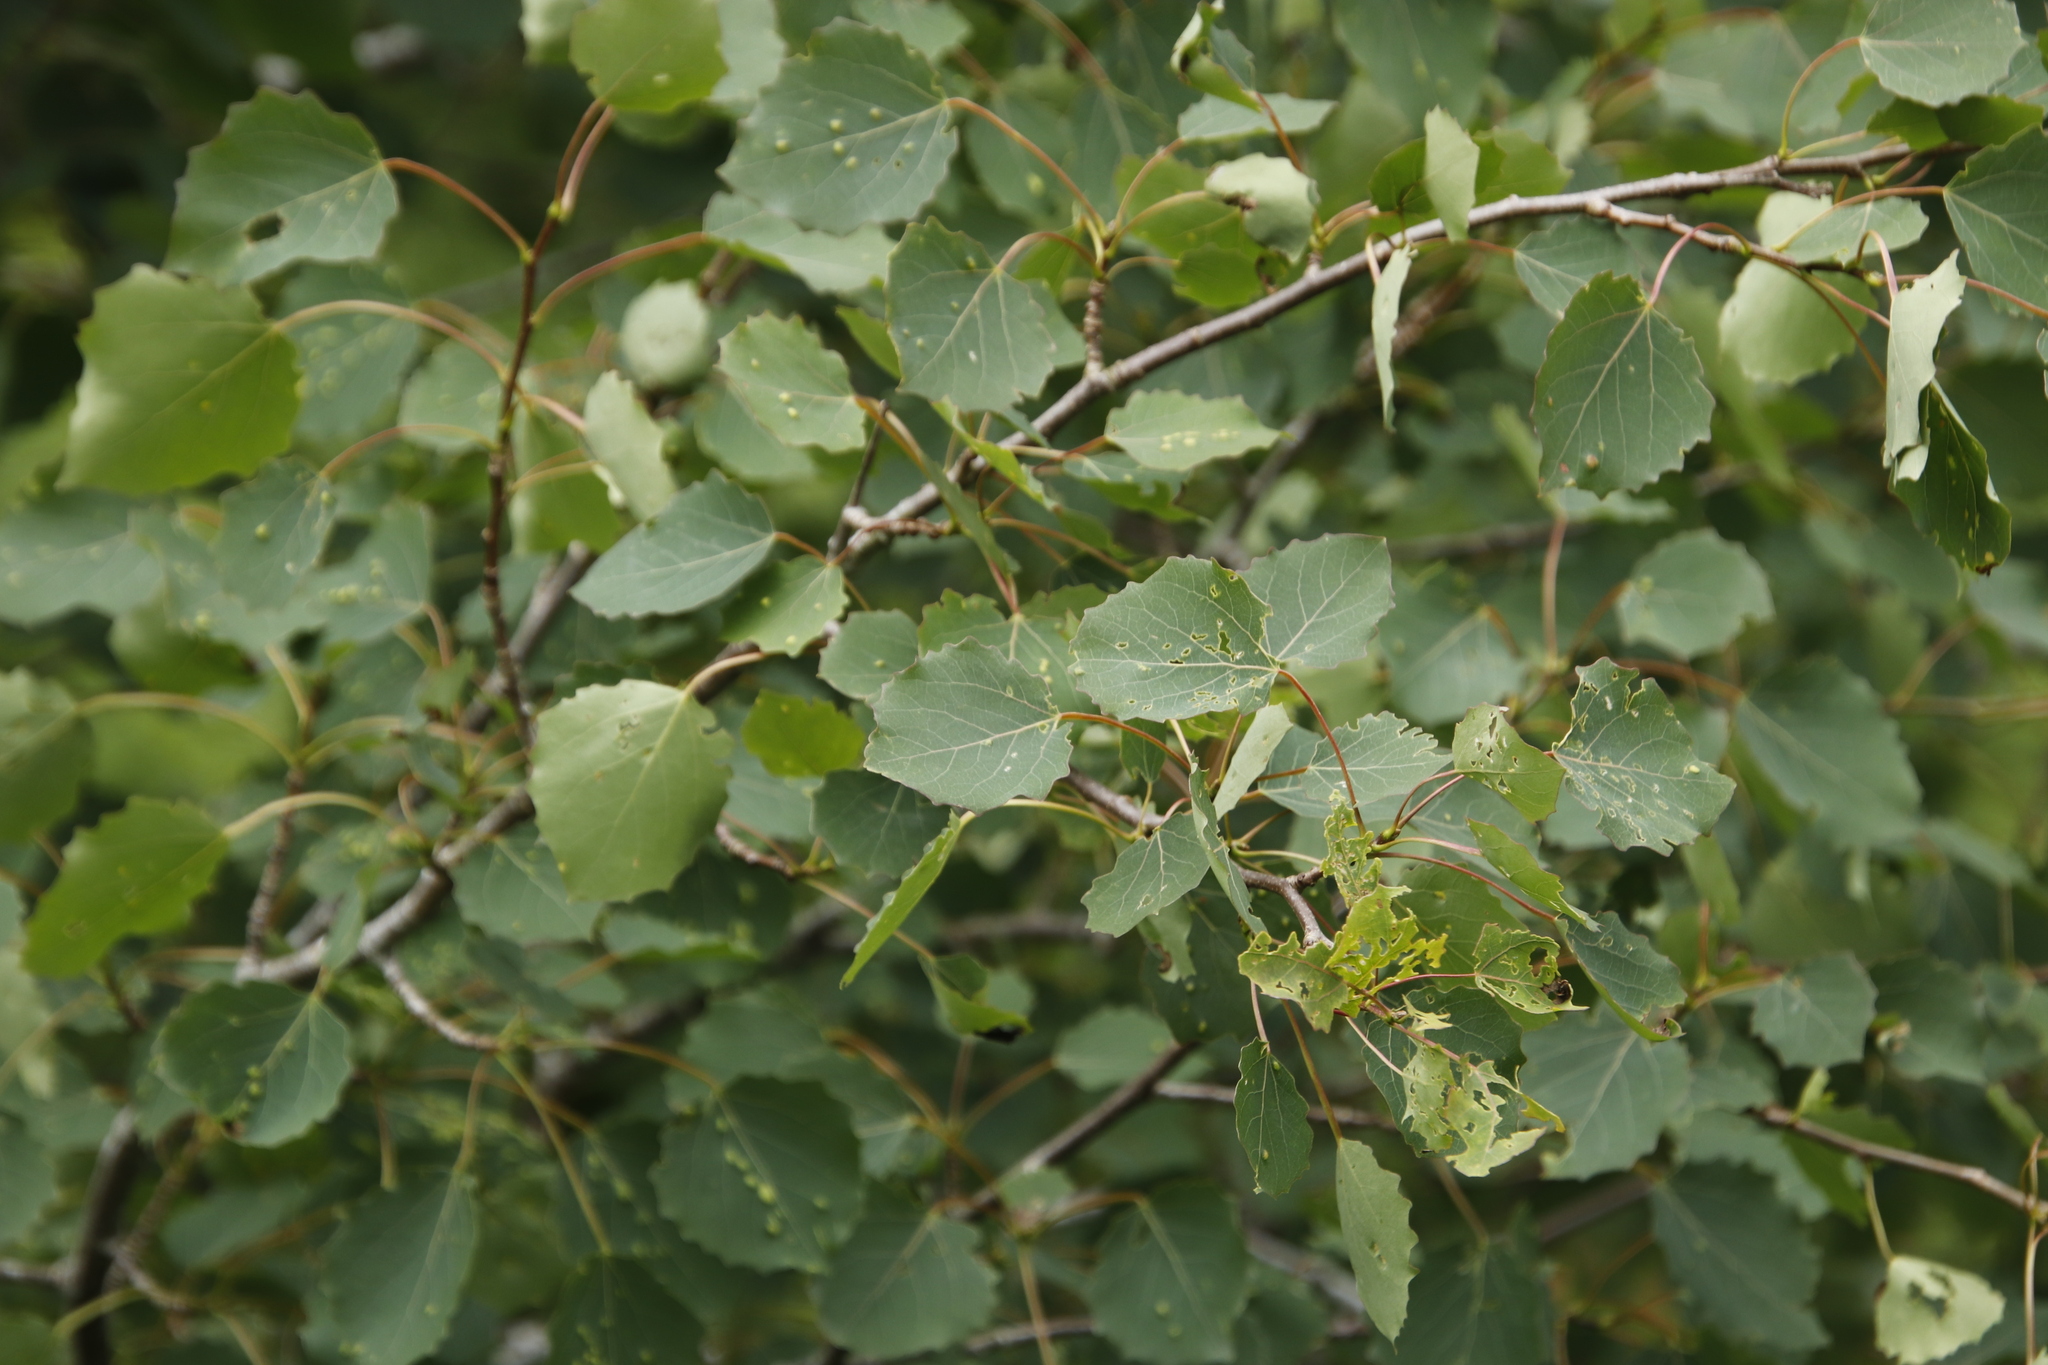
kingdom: Plantae
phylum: Tracheophyta
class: Magnoliopsida
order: Fagales
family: Betulaceae
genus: Betula
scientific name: Betula pendula
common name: Silver birch
